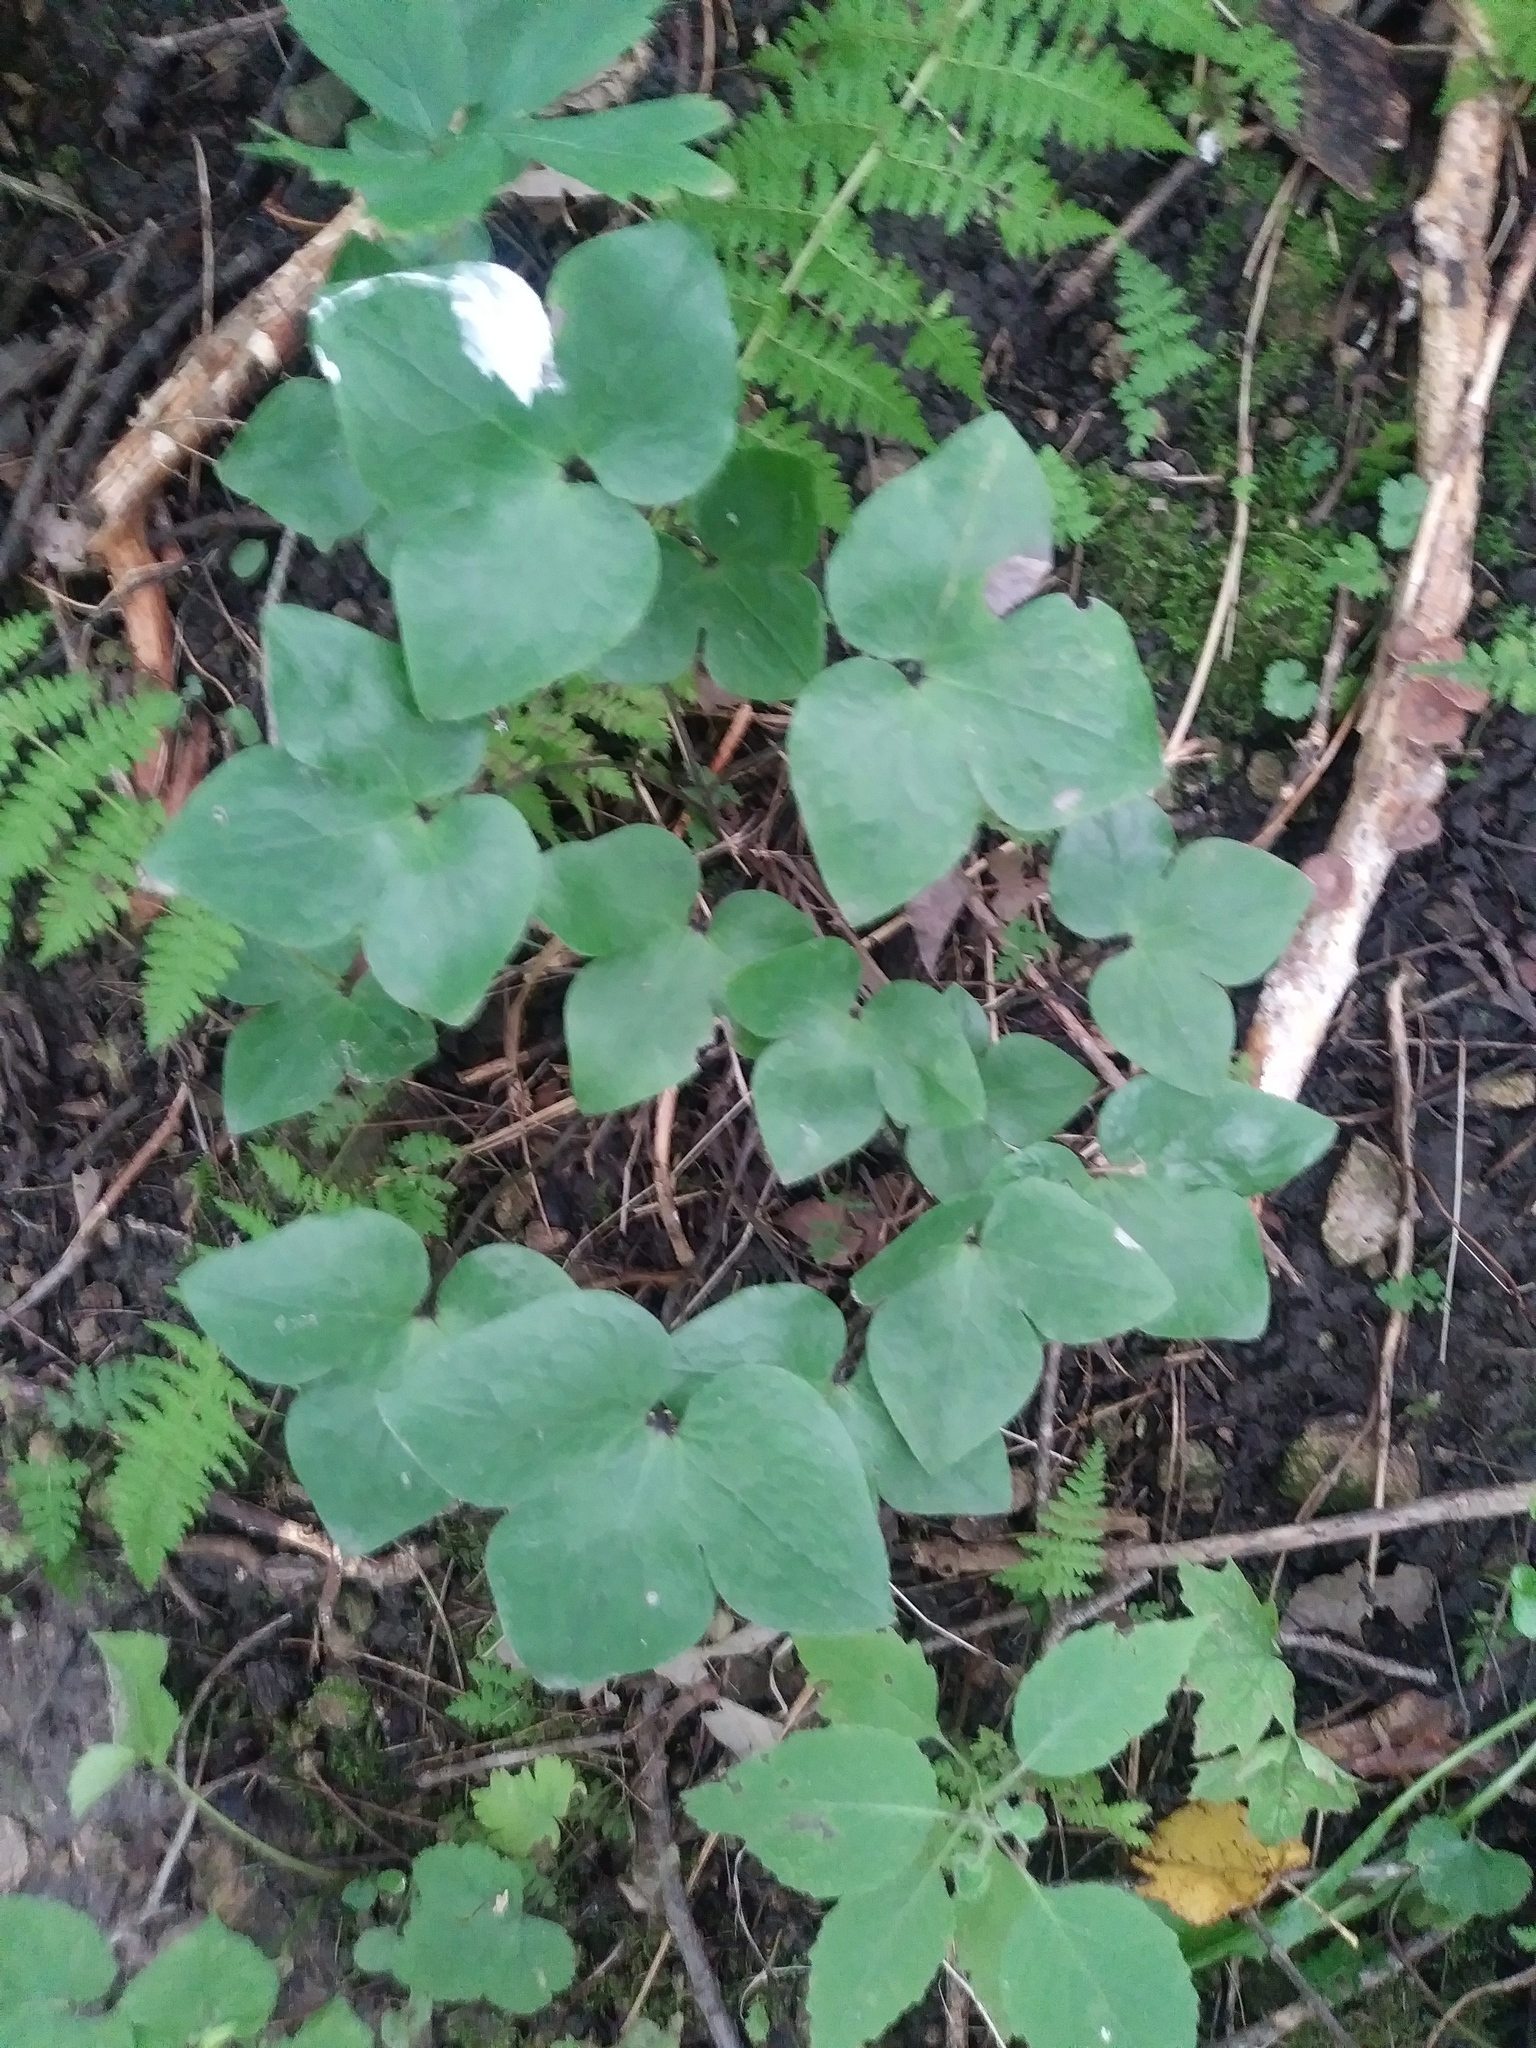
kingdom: Plantae
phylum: Tracheophyta
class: Magnoliopsida
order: Ranunculales
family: Ranunculaceae
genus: Hepatica
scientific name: Hepatica acutiloba
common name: Sharp-lobed hepatica
